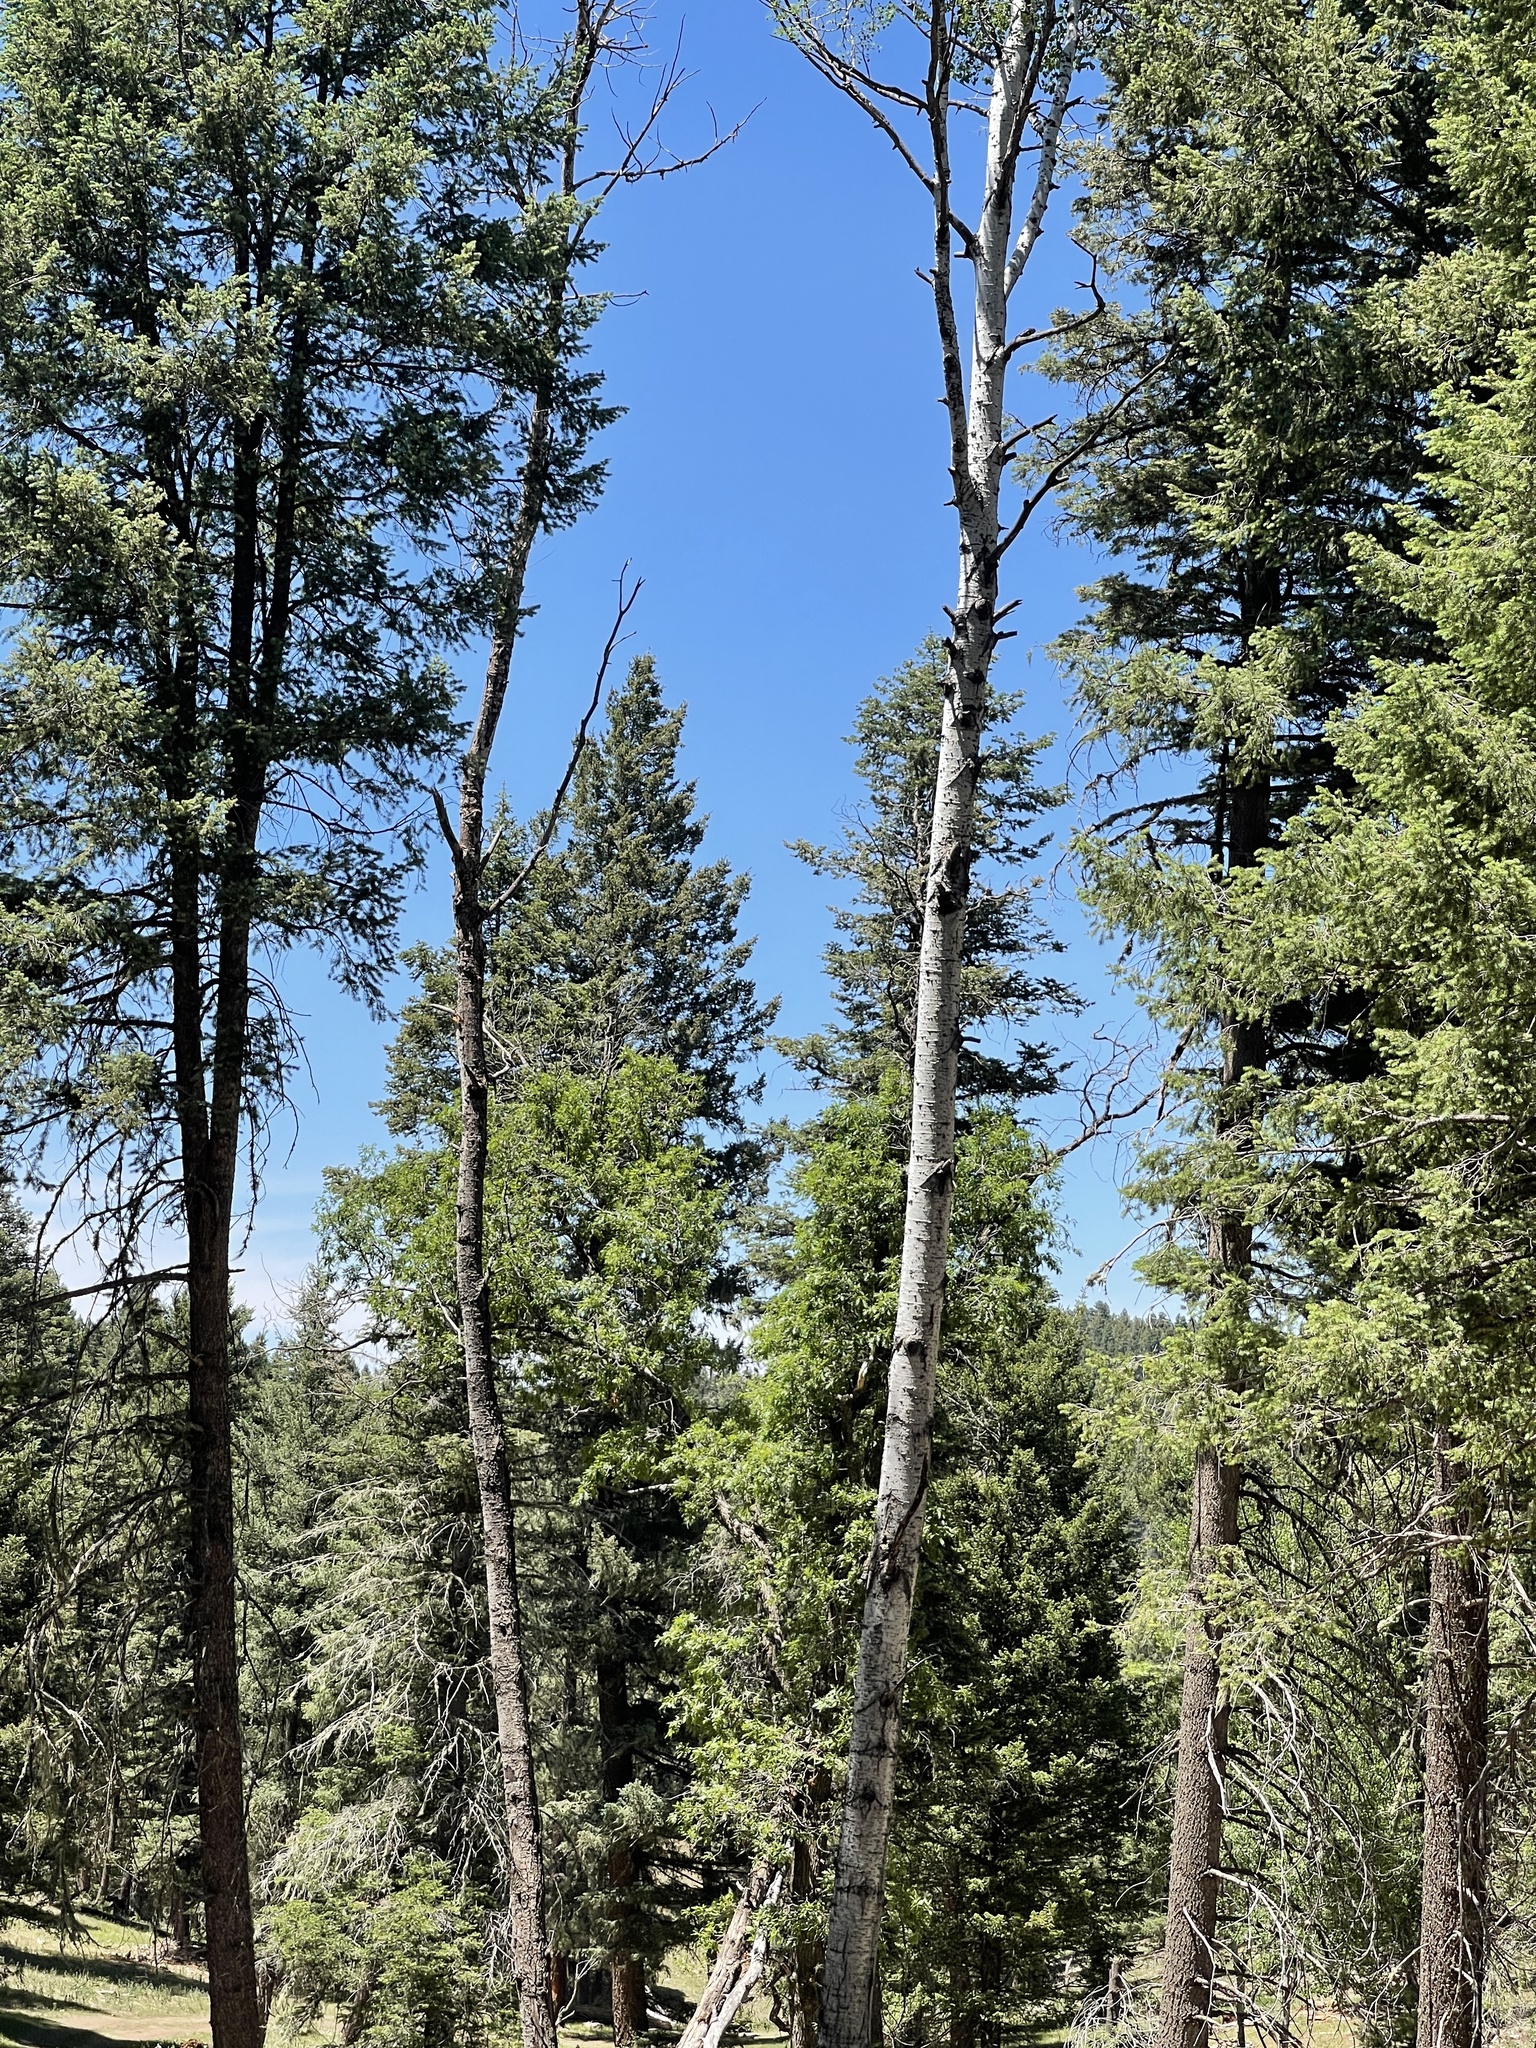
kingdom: Plantae
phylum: Tracheophyta
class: Magnoliopsida
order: Malpighiales
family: Salicaceae
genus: Populus
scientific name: Populus tremuloides
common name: Quaking aspen
